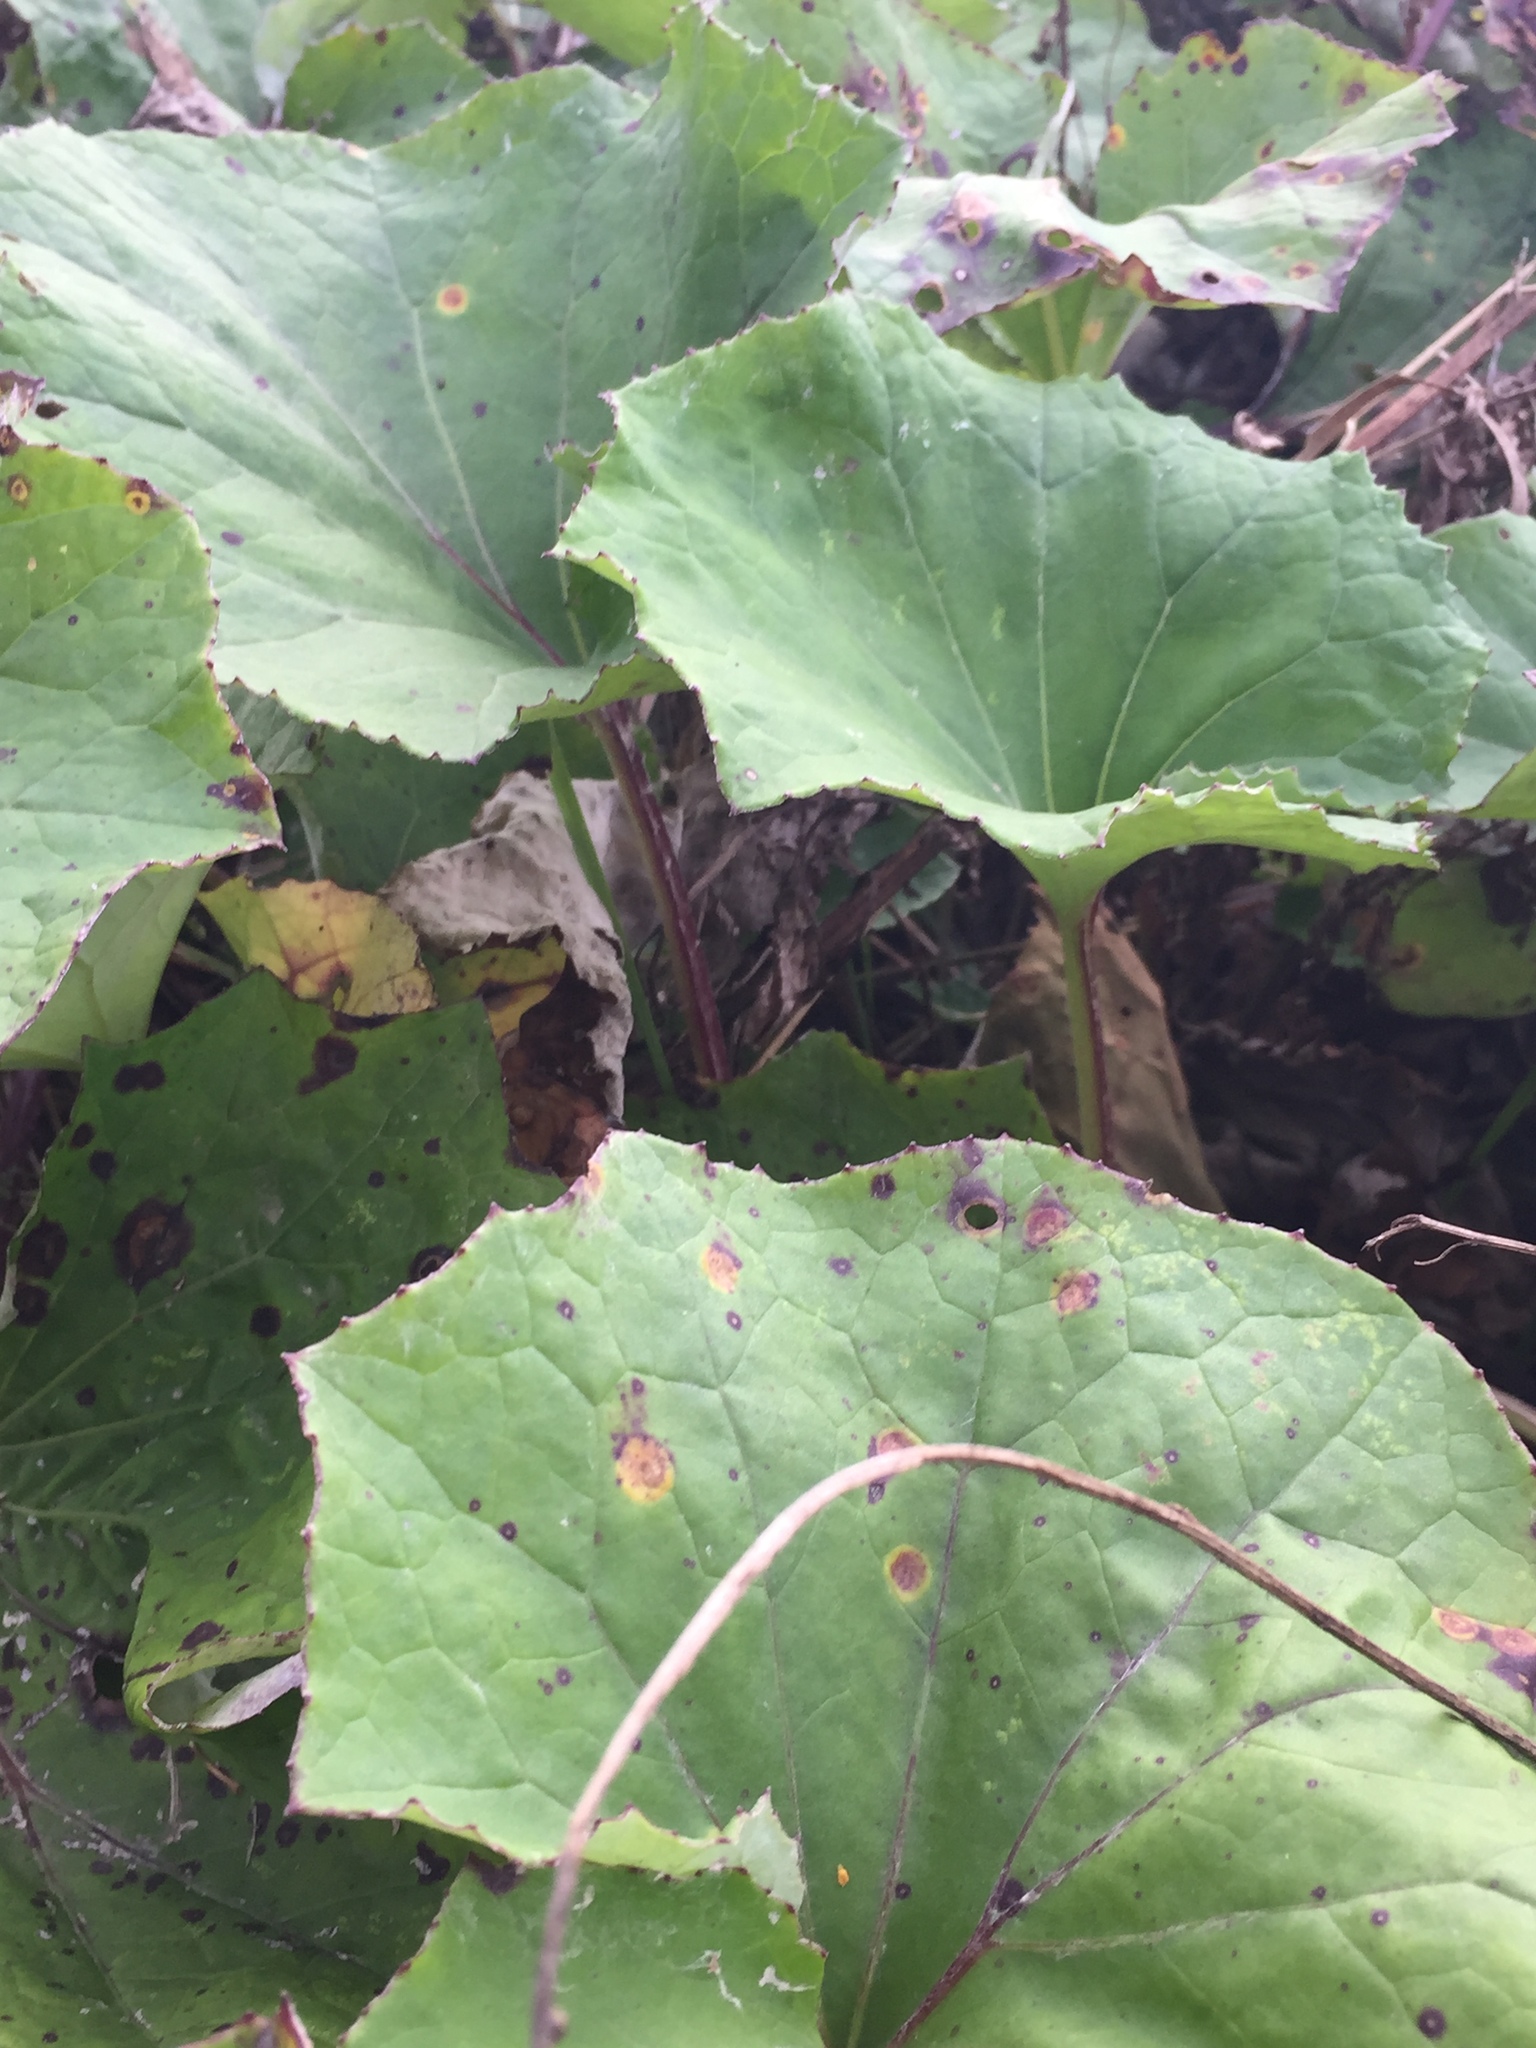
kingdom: Plantae
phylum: Tracheophyta
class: Magnoliopsida
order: Asterales
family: Asteraceae
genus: Tussilago
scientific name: Tussilago farfara
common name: Coltsfoot
